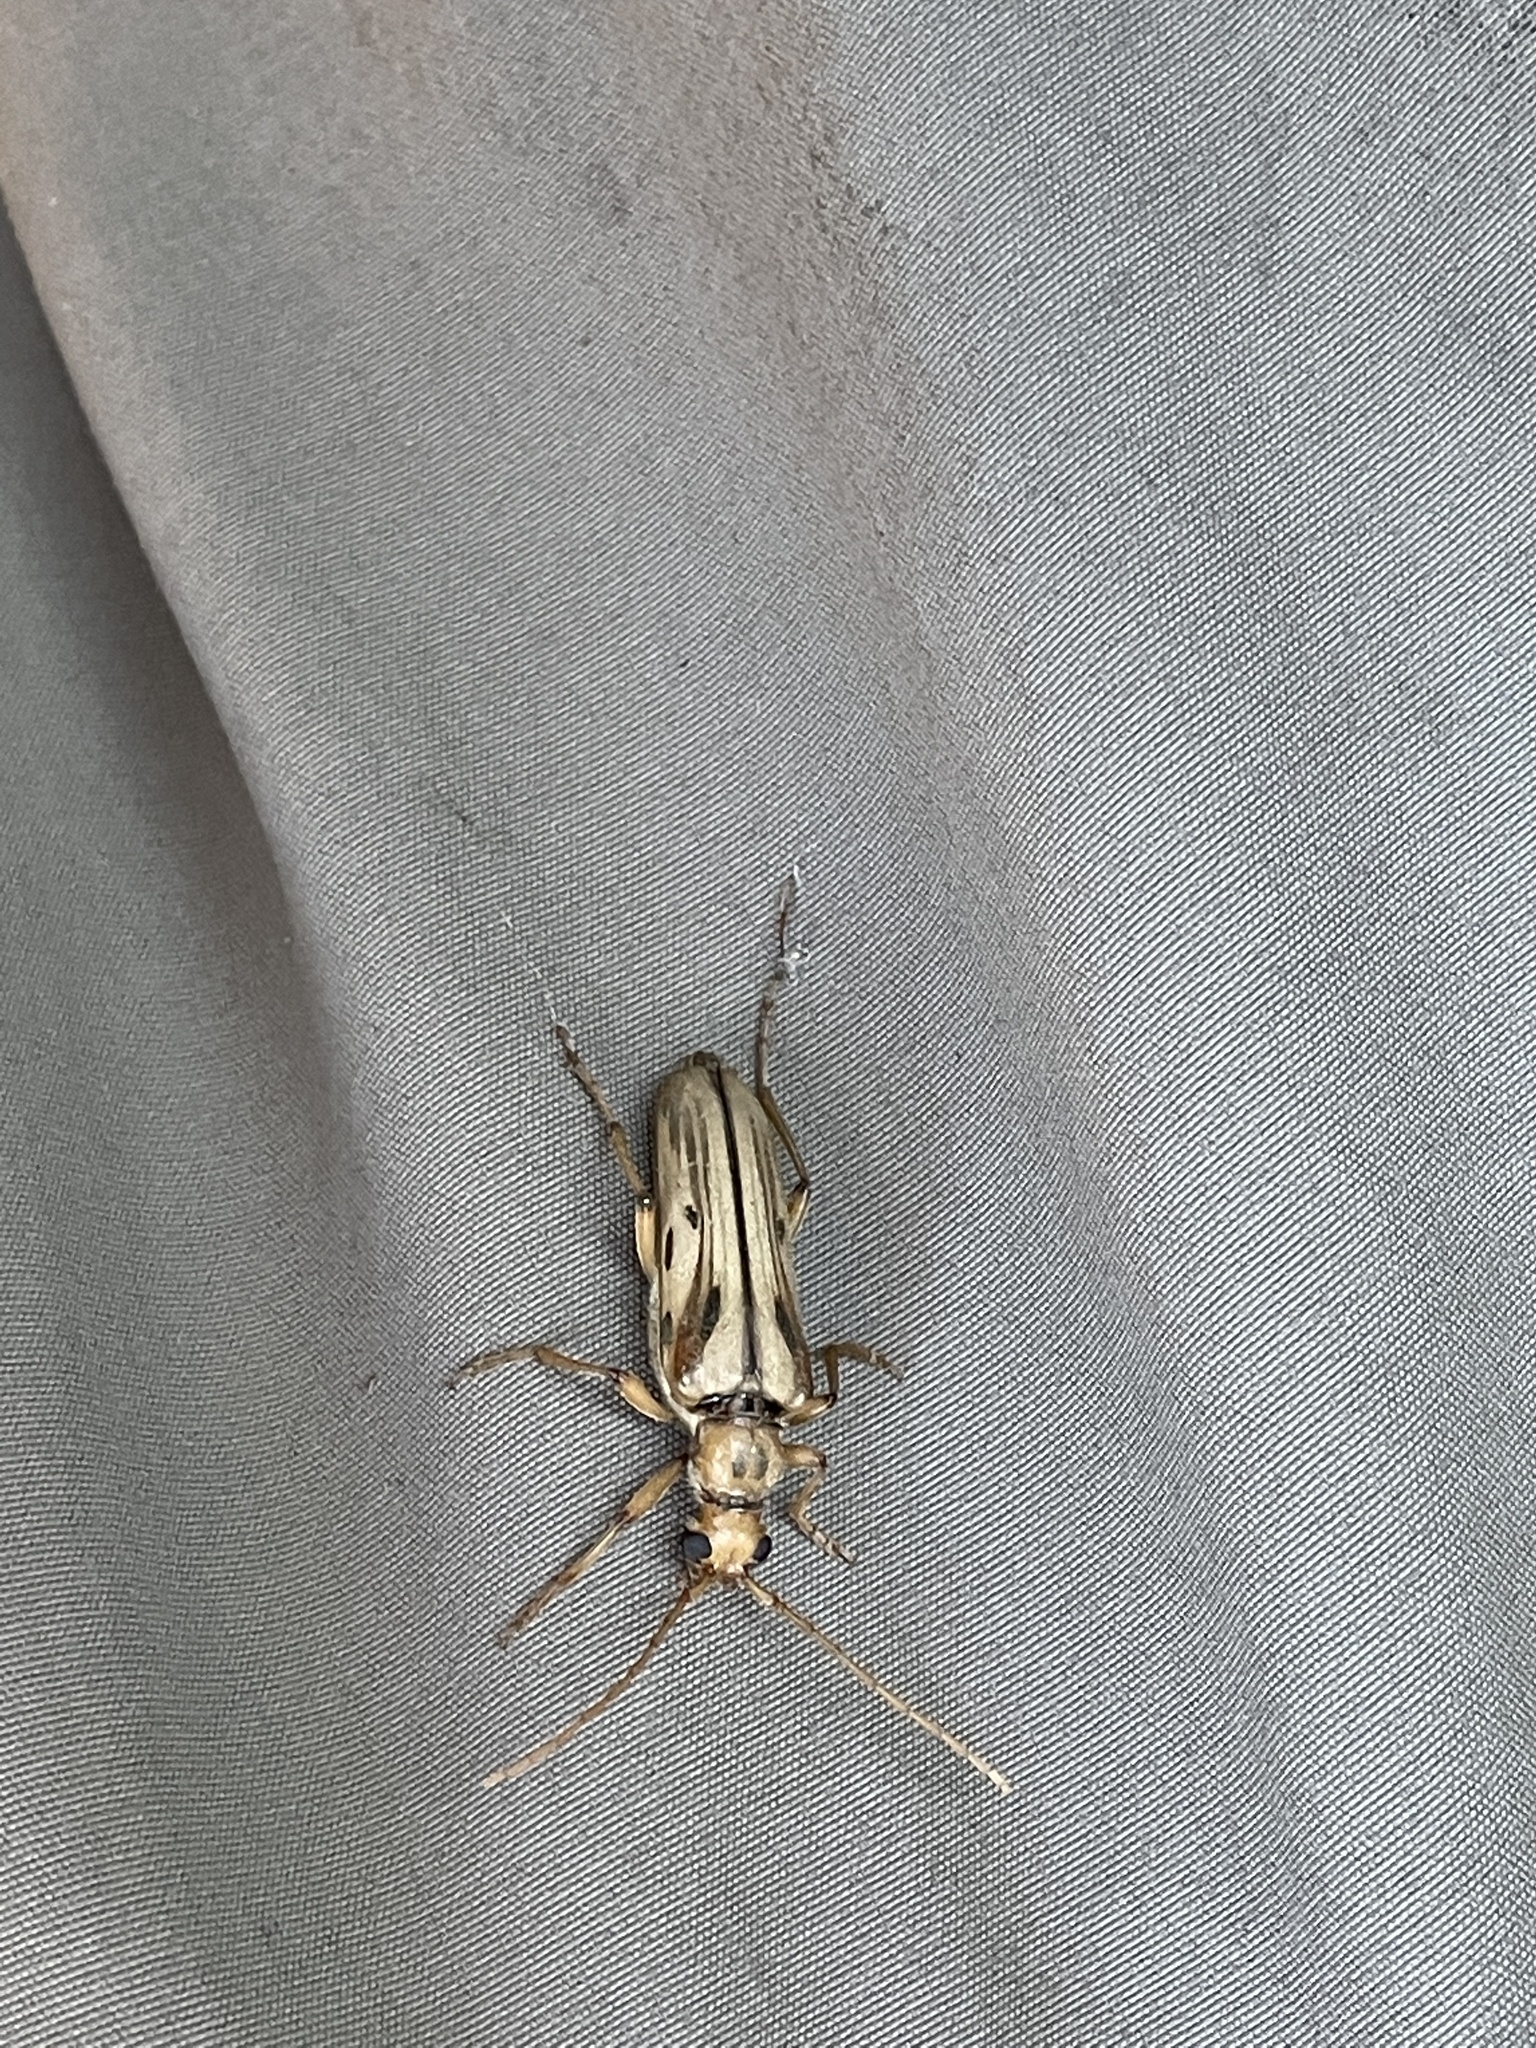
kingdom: Animalia
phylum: Arthropoda
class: Insecta
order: Coleoptera
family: Cerambycidae
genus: Ortholeptura
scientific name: Ortholeptura valida
